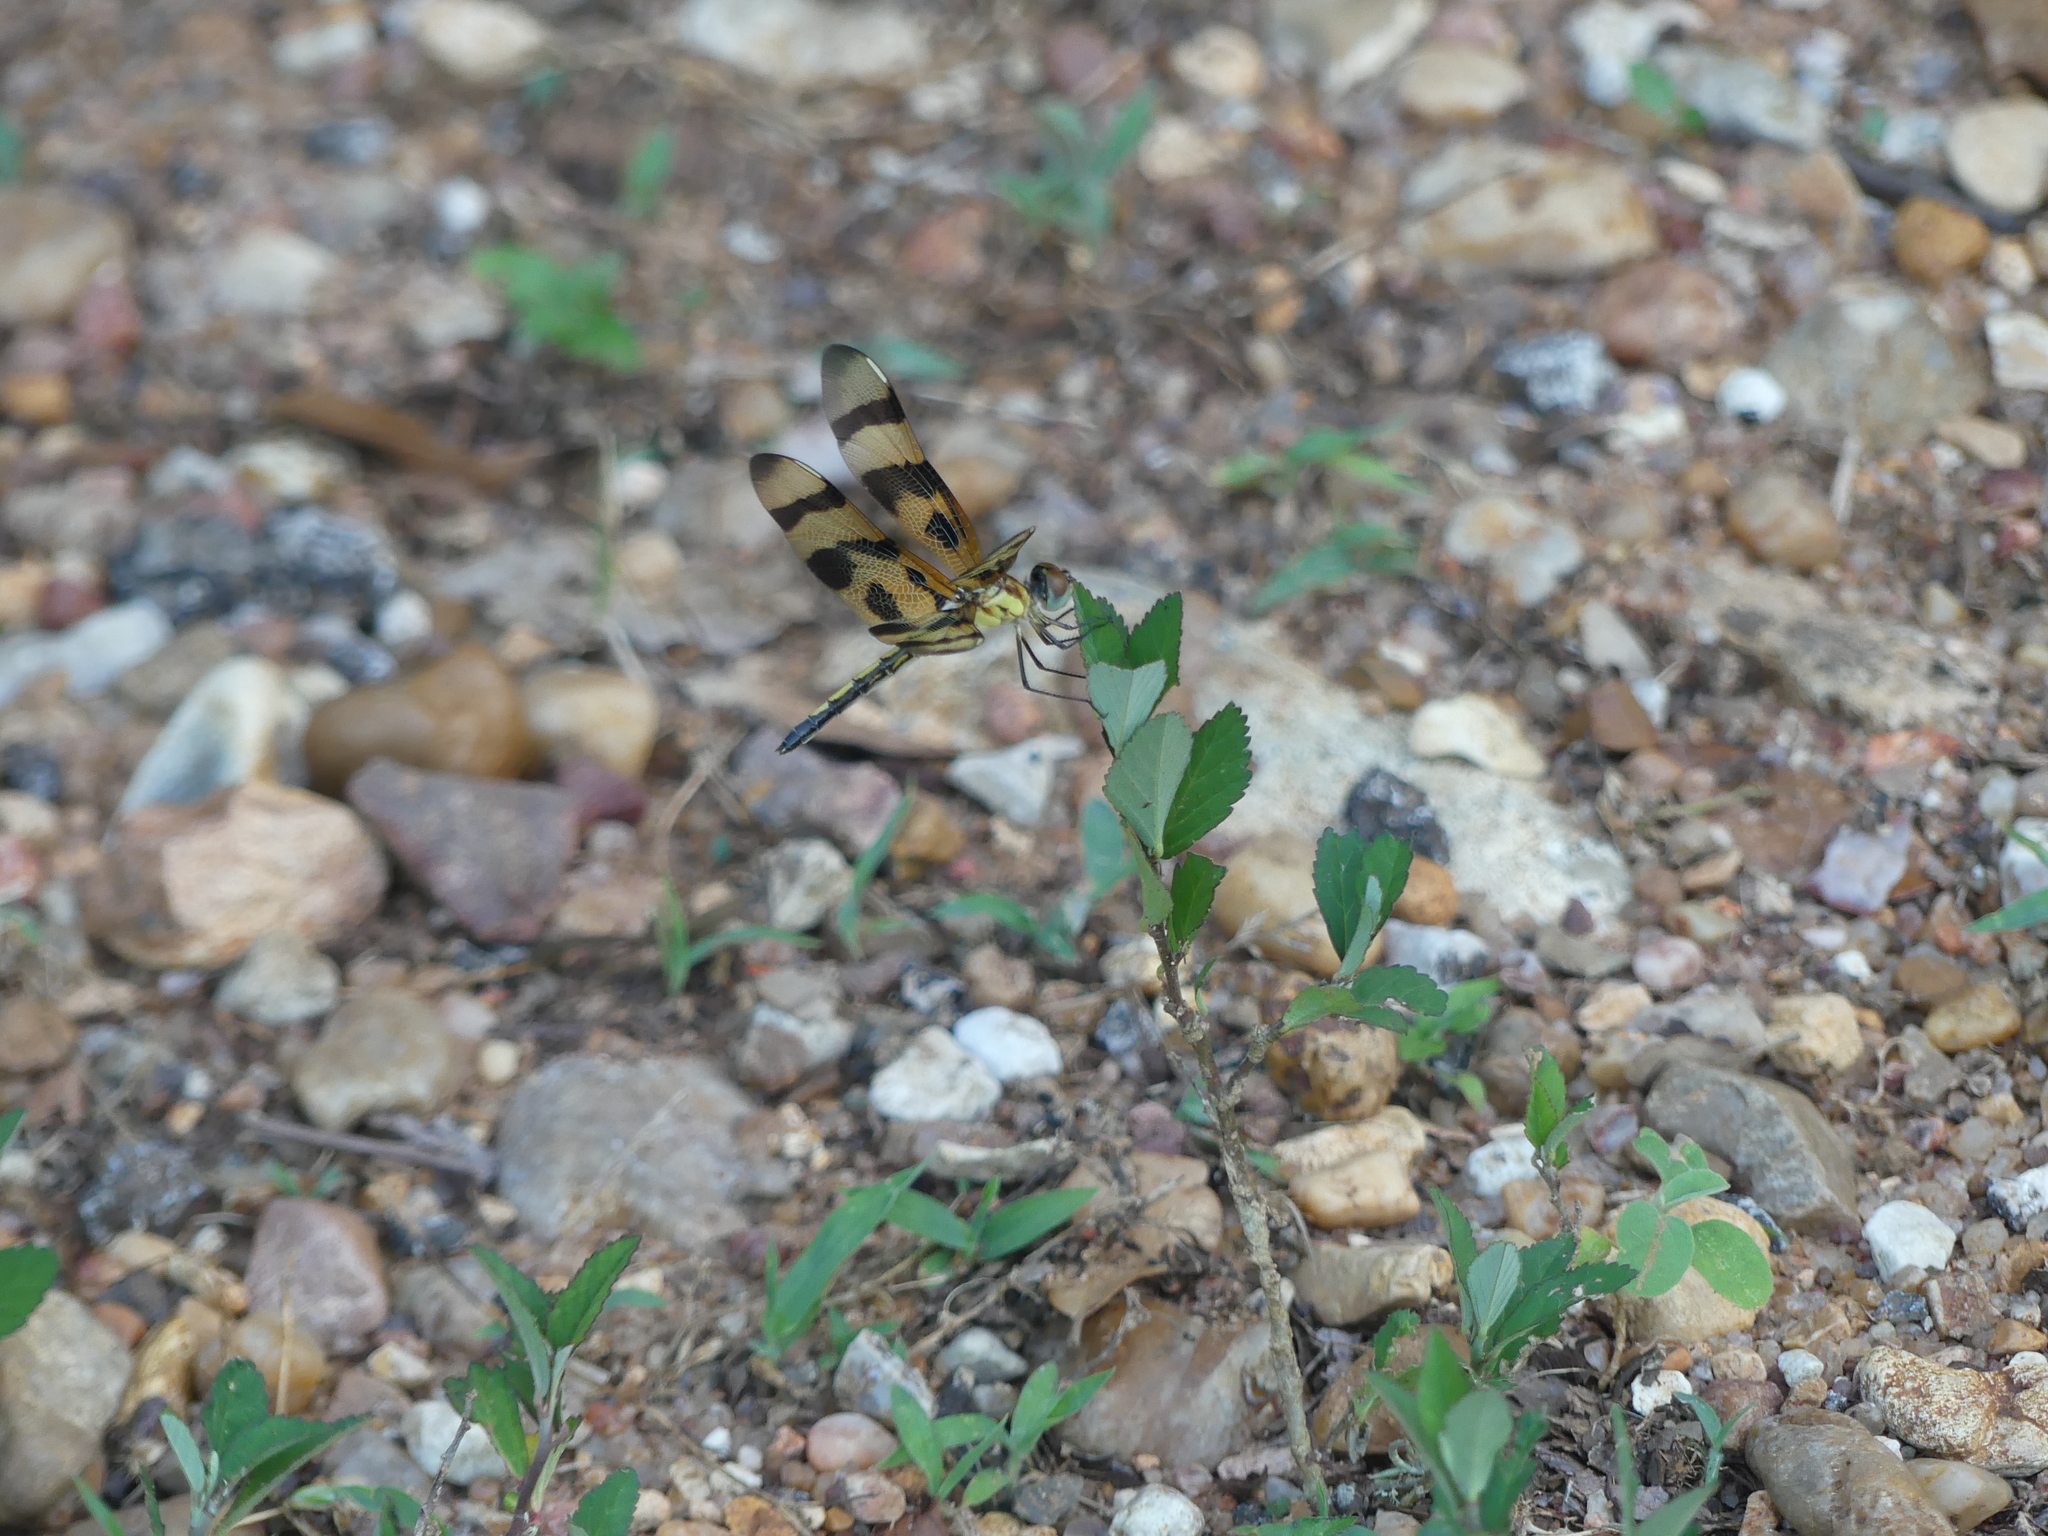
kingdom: Animalia
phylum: Arthropoda
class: Insecta
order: Odonata
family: Libellulidae
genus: Celithemis
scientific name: Celithemis eponina
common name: Halloween pennant
